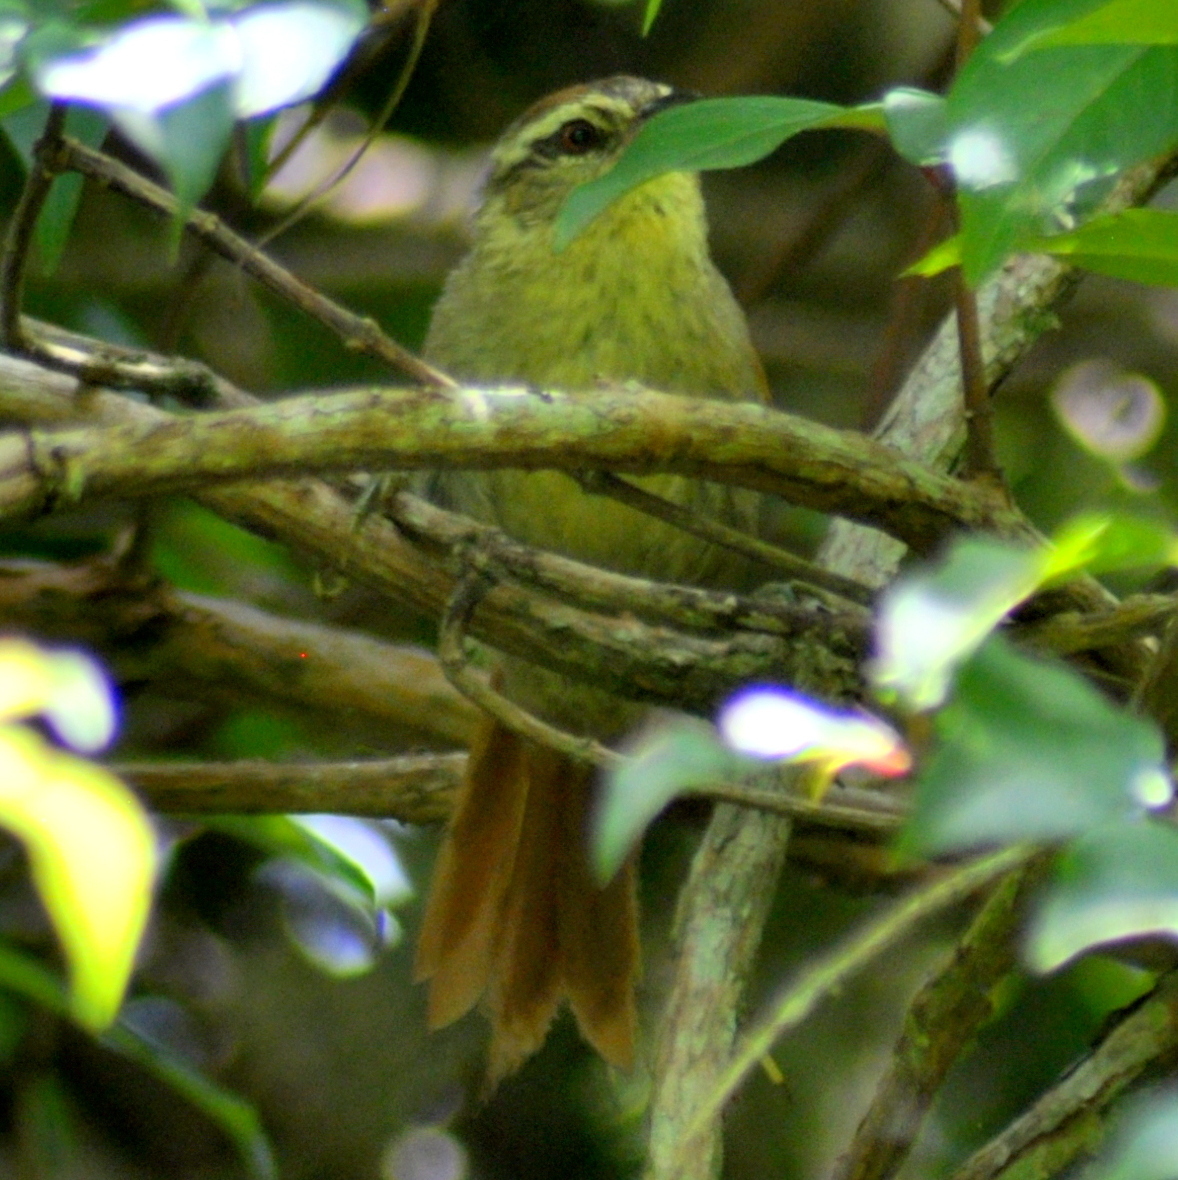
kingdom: Animalia
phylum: Chordata
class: Aves
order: Passeriformes
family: Furnariidae
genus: Cranioleuca
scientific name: Cranioleuca pallida
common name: Pallid spinetail
